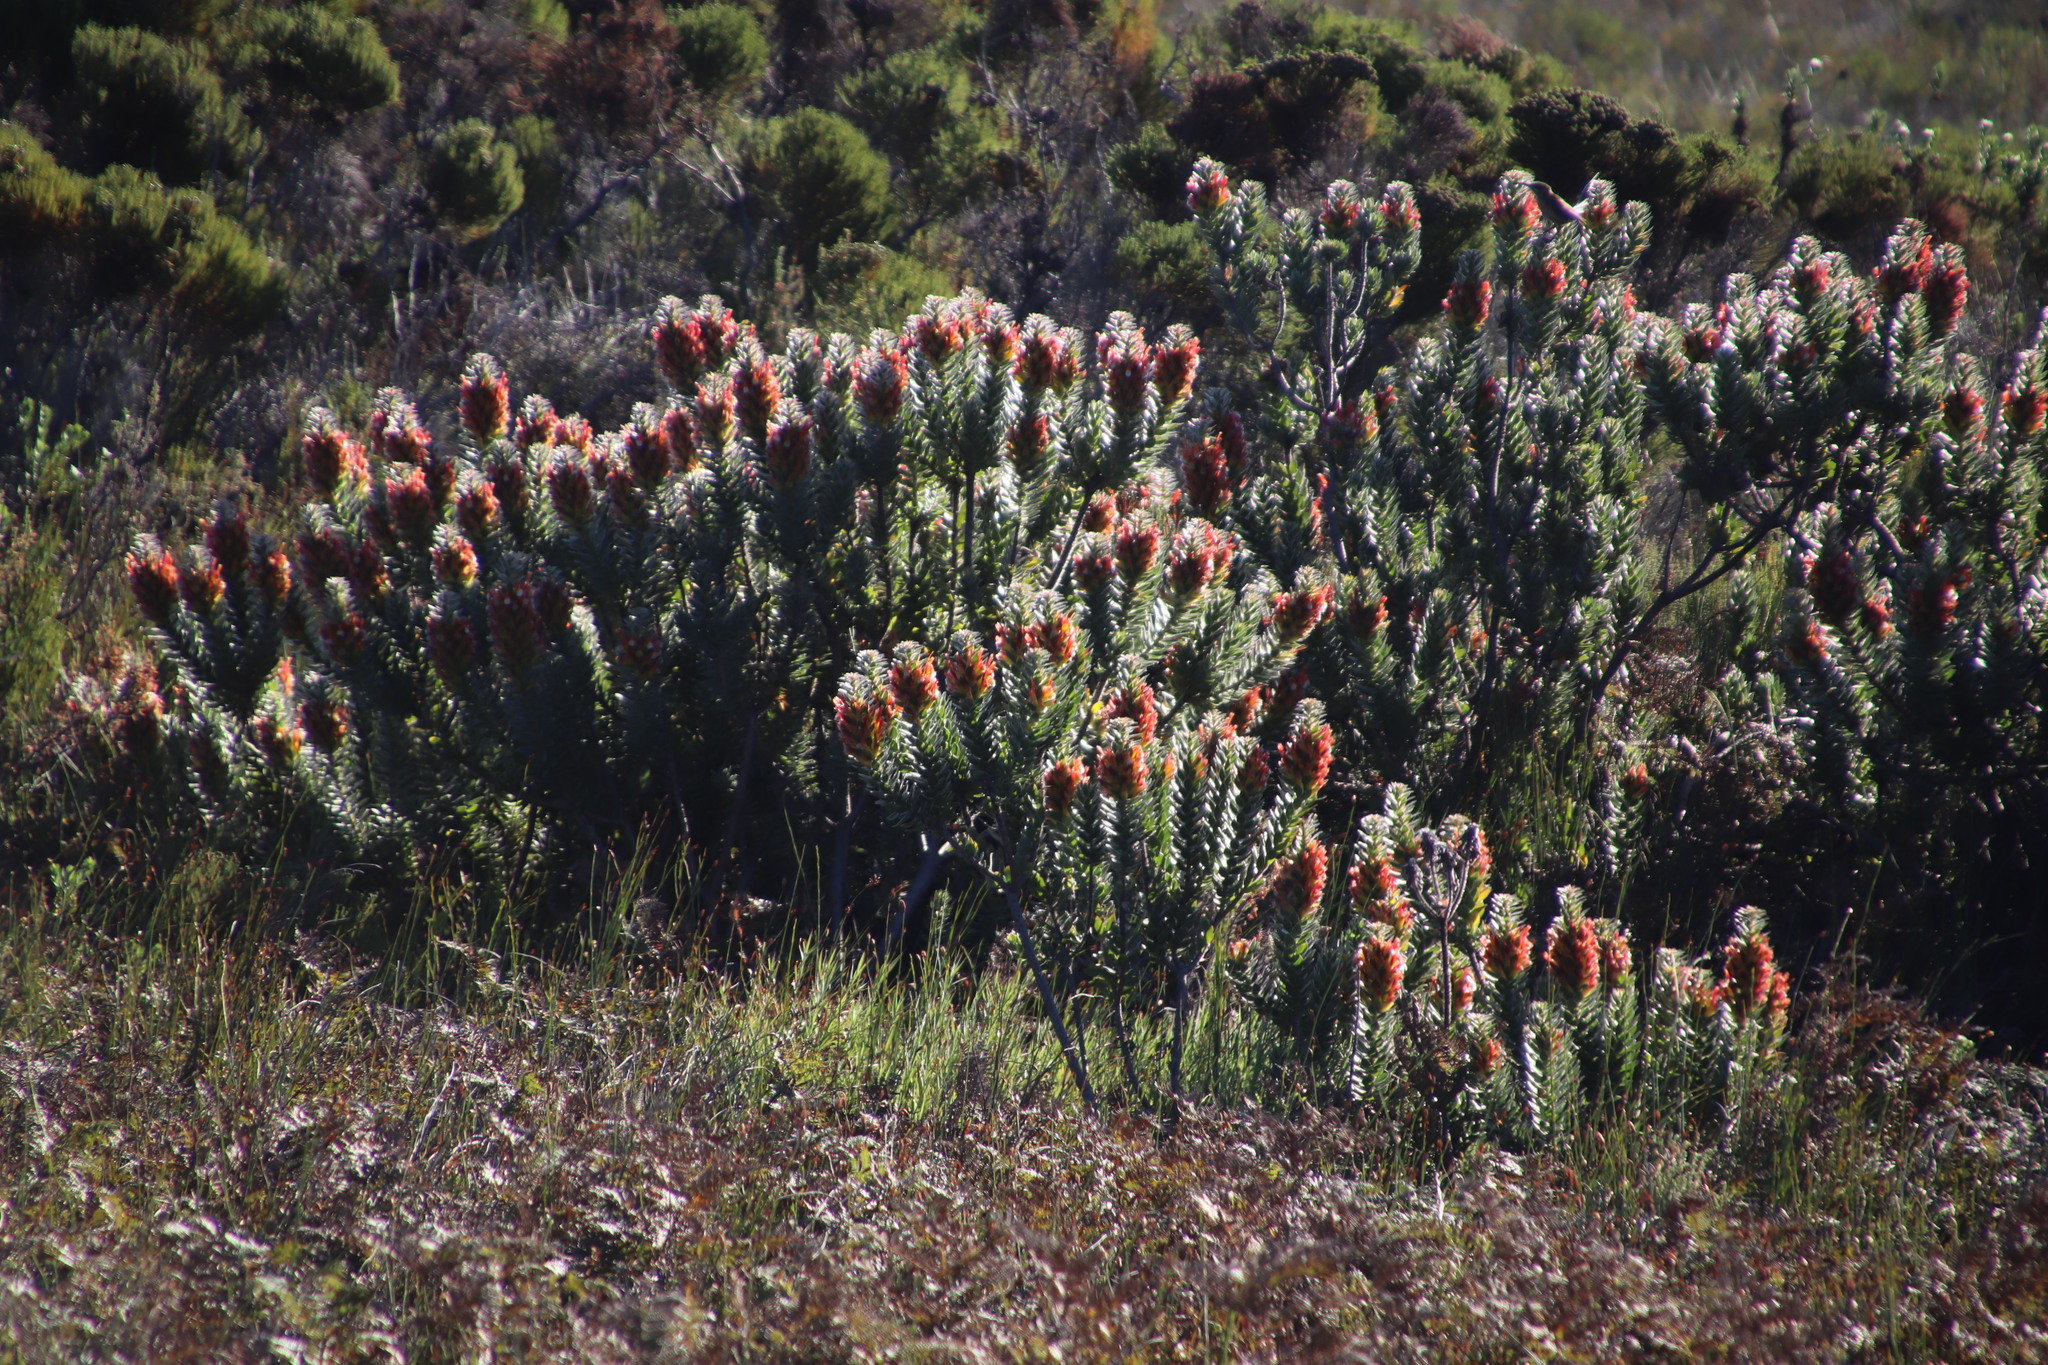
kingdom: Plantae
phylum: Tracheophyta
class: Magnoliopsida
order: Proteales
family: Proteaceae
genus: Mimetes
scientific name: Mimetes hirtus
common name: Marsh pagoda
